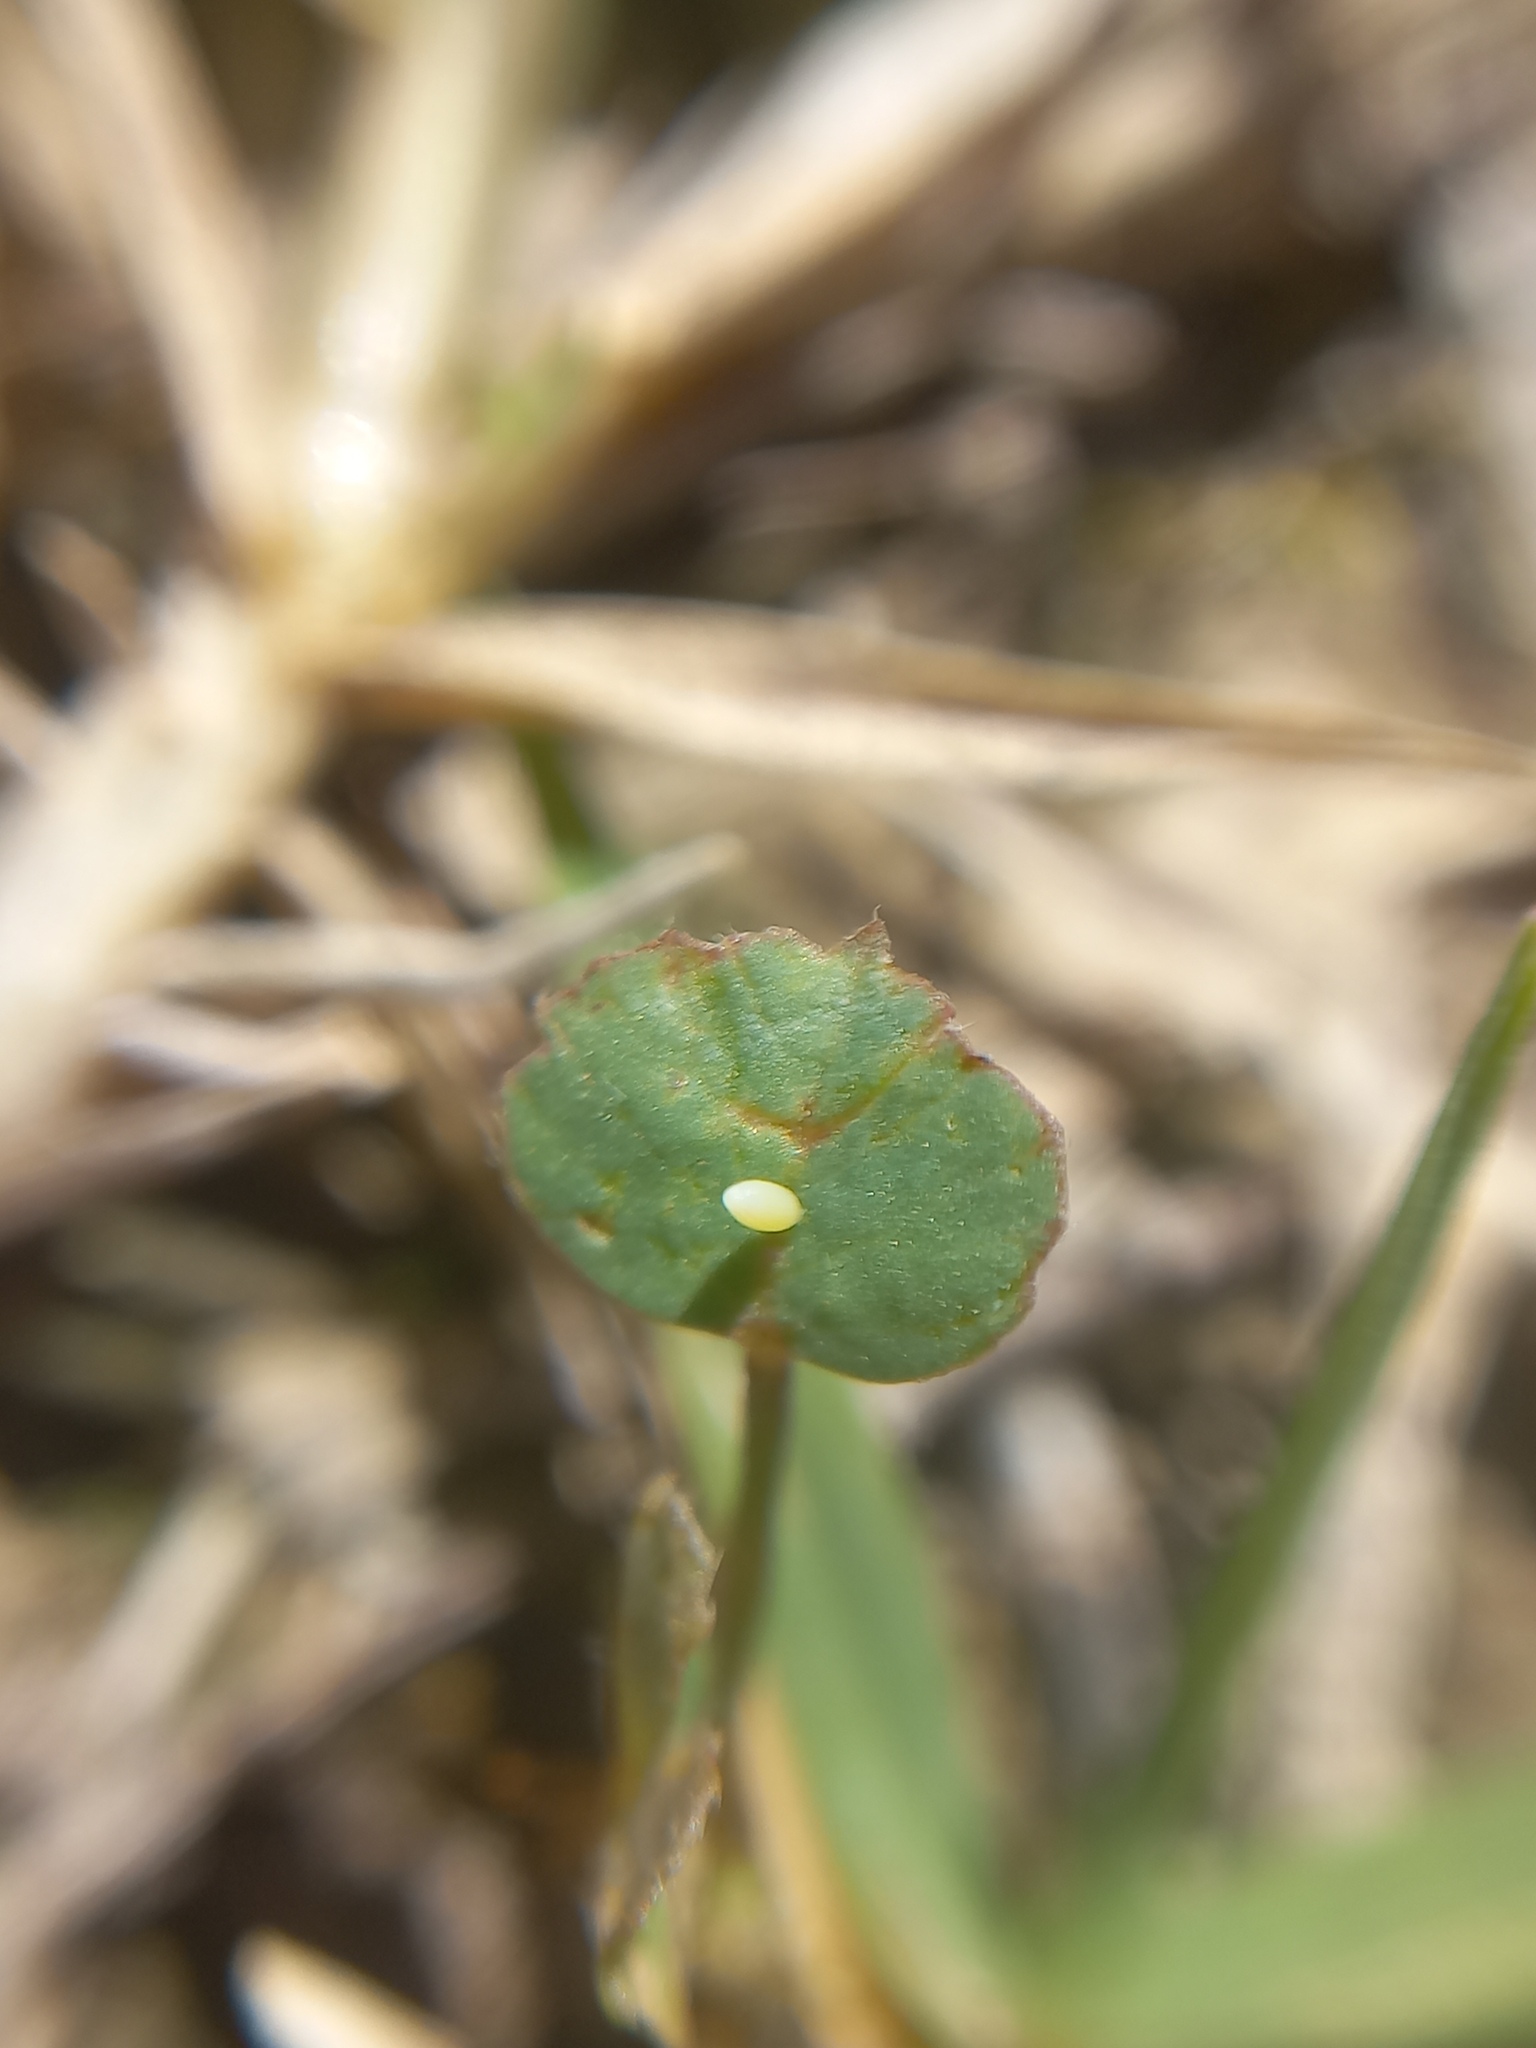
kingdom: Animalia
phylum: Arthropoda
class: Insecta
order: Lepidoptera
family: Pieridae
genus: Colias
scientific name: Colias lesbia
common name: Lesbia clouded yellow
